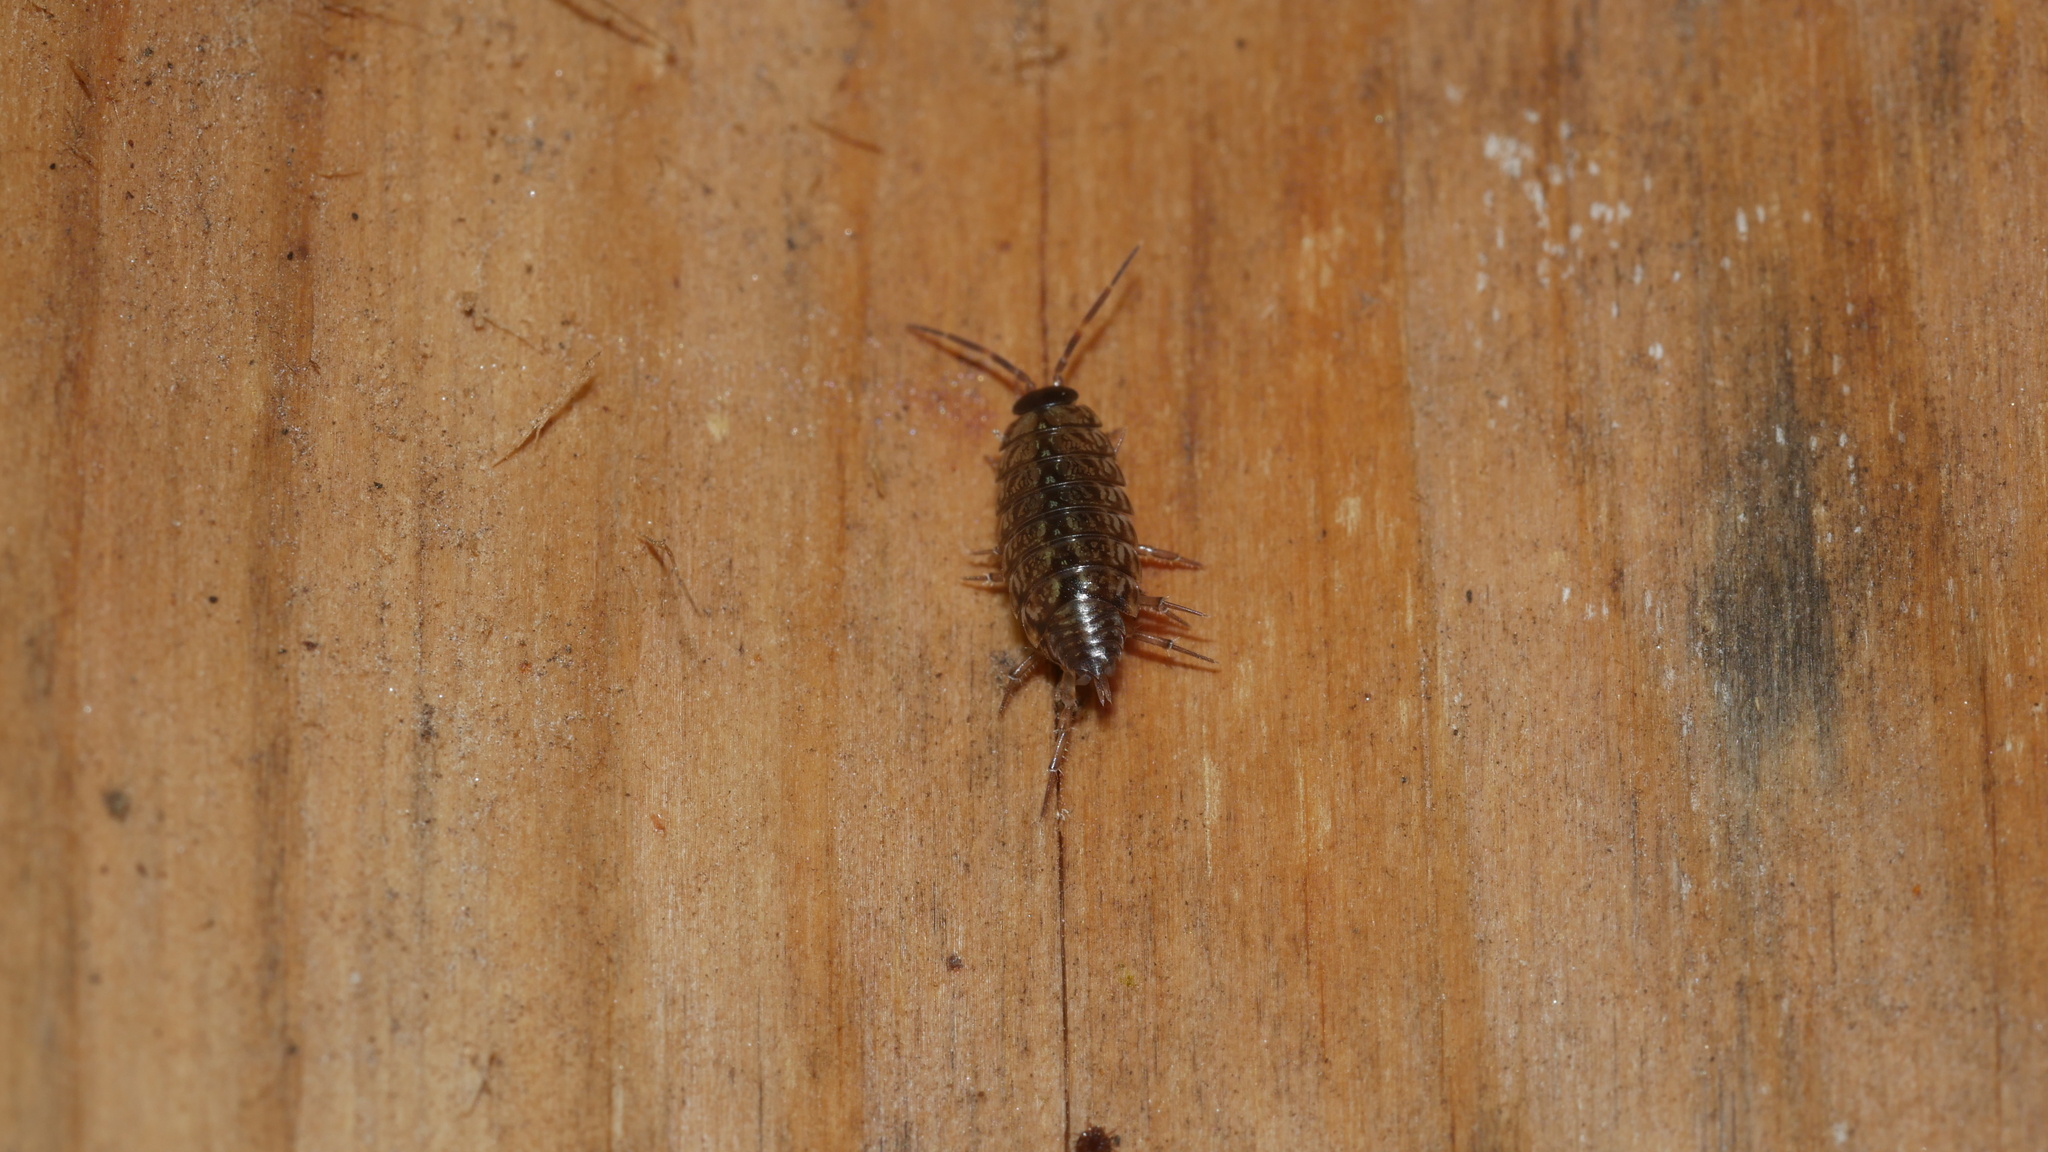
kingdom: Animalia
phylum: Arthropoda
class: Malacostraca
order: Isopoda
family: Philosciidae
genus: Philoscia
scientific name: Philoscia muscorum
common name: Common striped woodlouse
